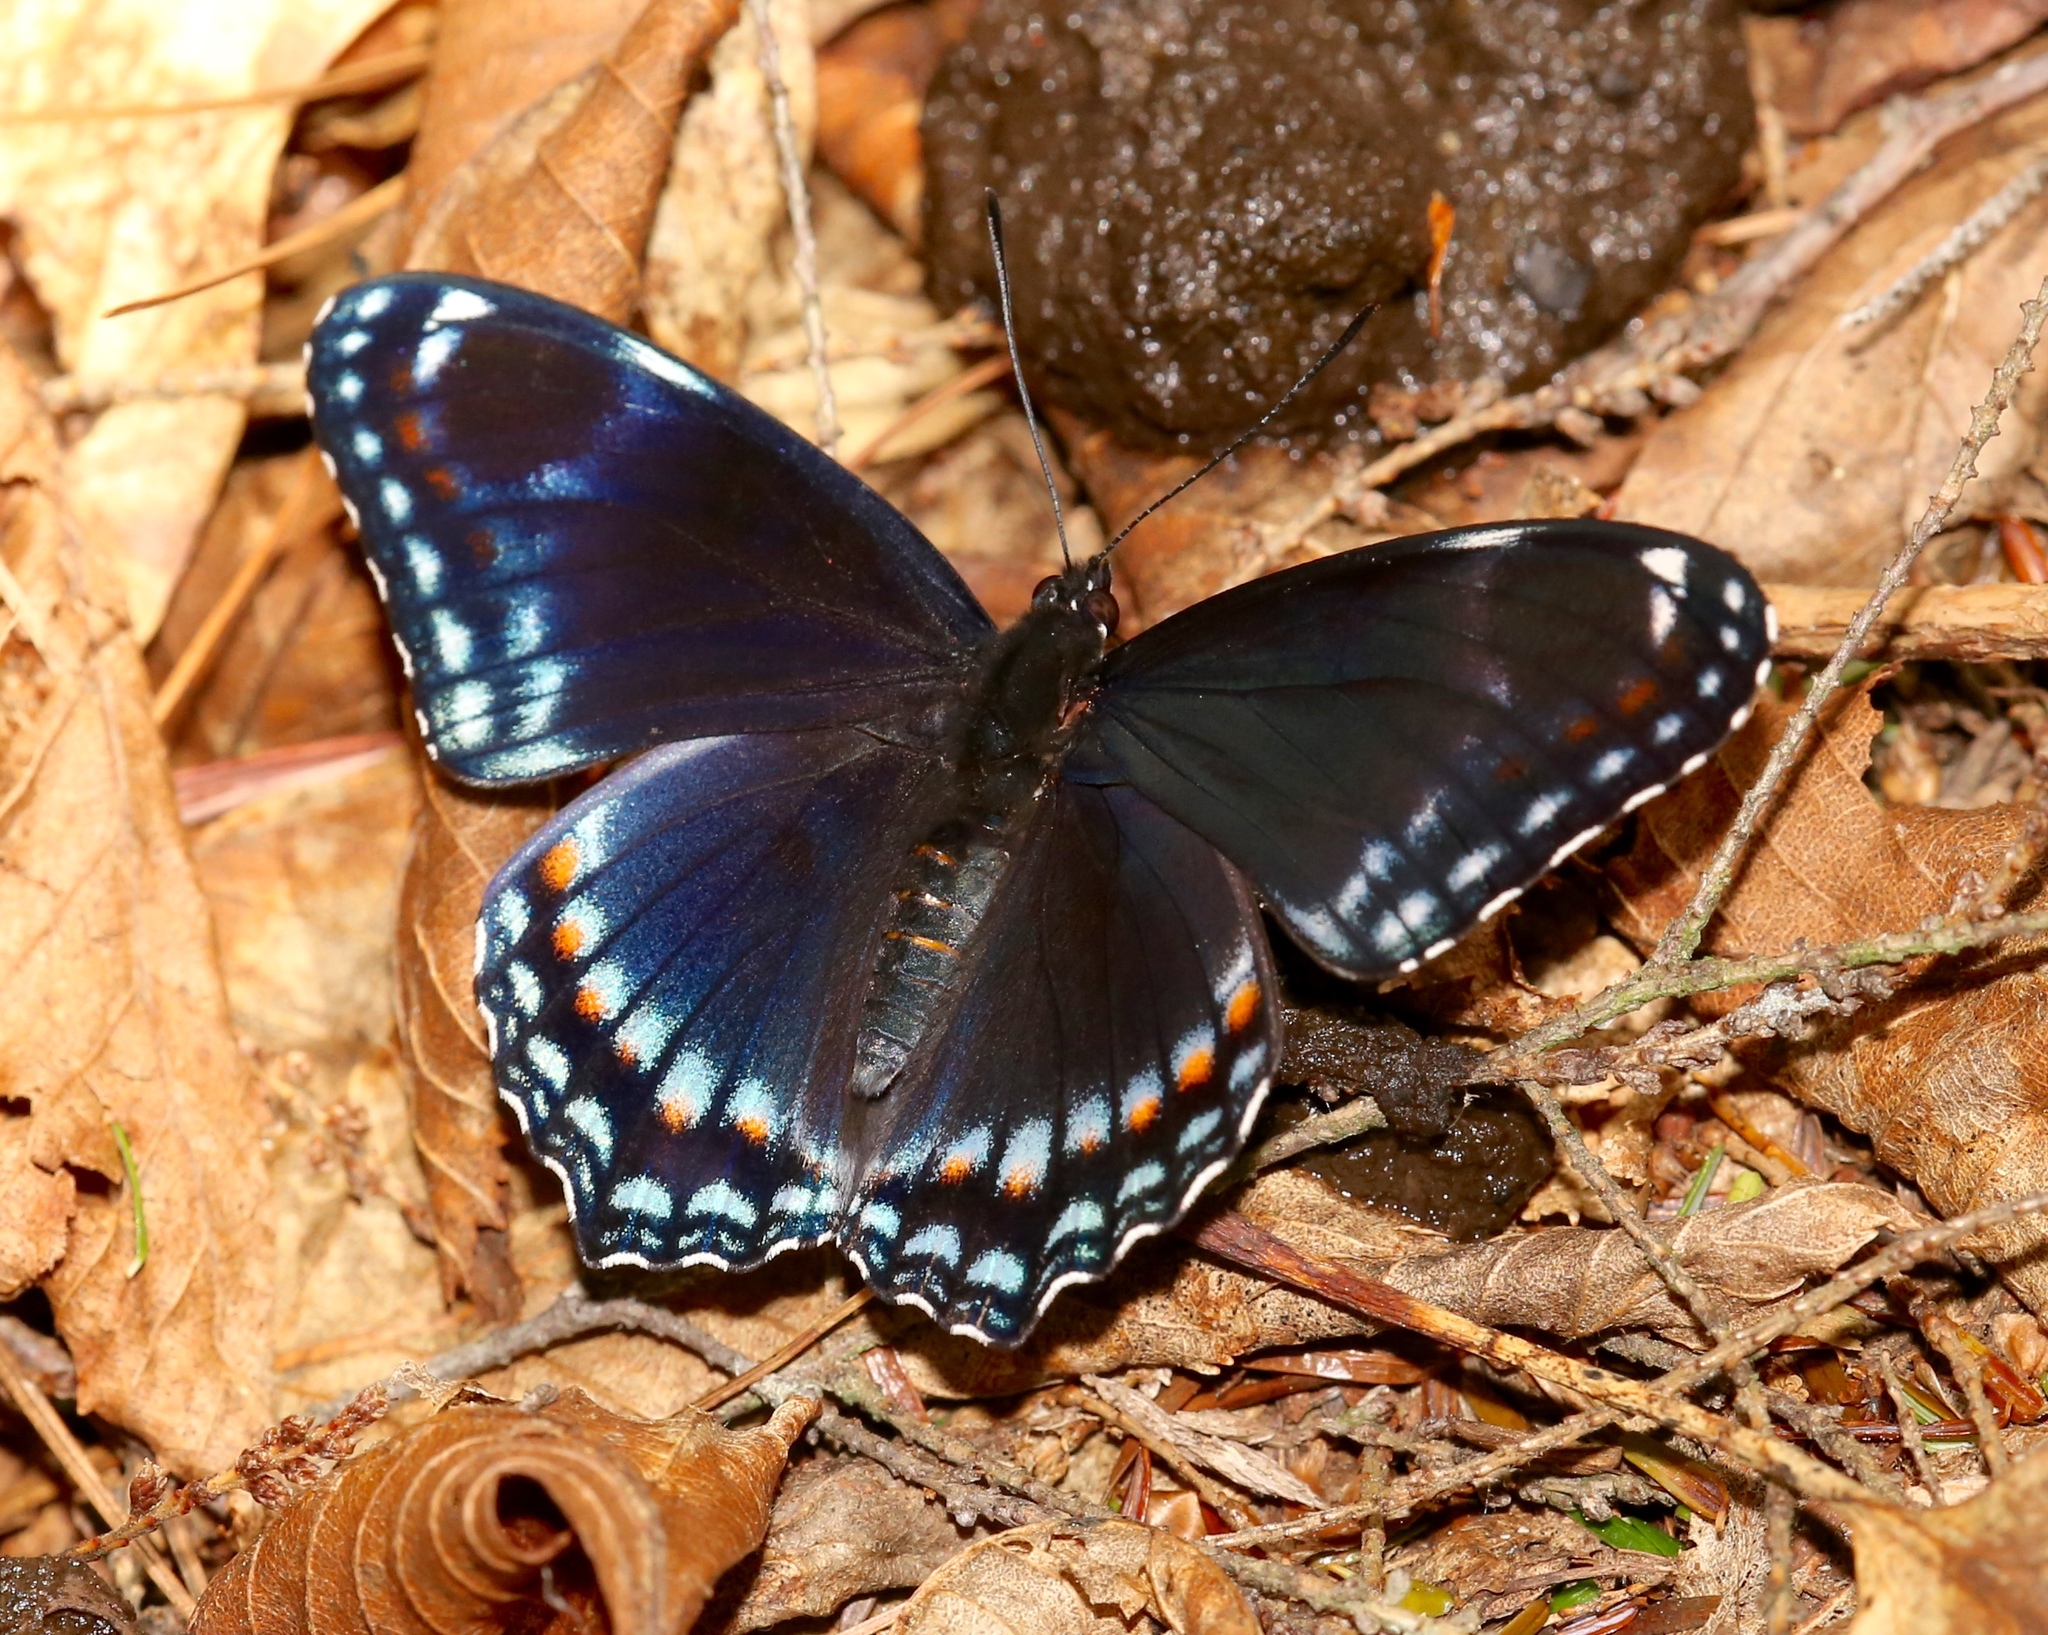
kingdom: Animalia
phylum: Arthropoda
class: Insecta
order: Lepidoptera
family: Nymphalidae
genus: Limenitis
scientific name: Limenitis astyanax
